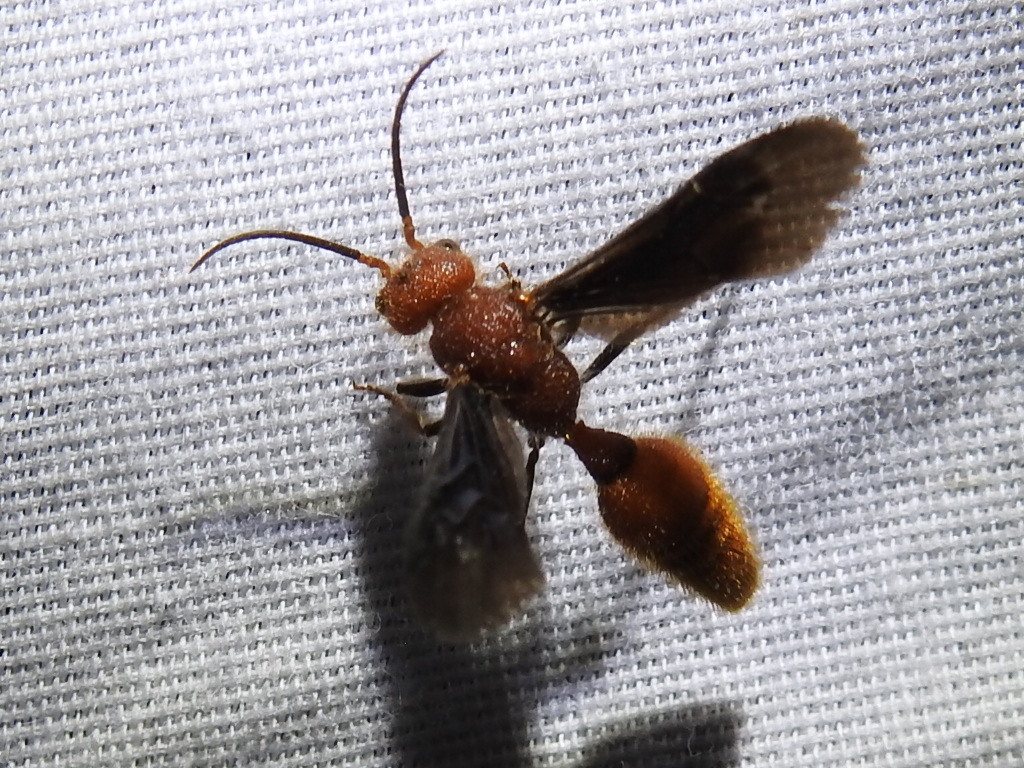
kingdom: Animalia
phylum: Arthropoda
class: Insecta
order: Hymenoptera
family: Mutillidae
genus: Sphaeropthalma
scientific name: Sphaeropthalma
